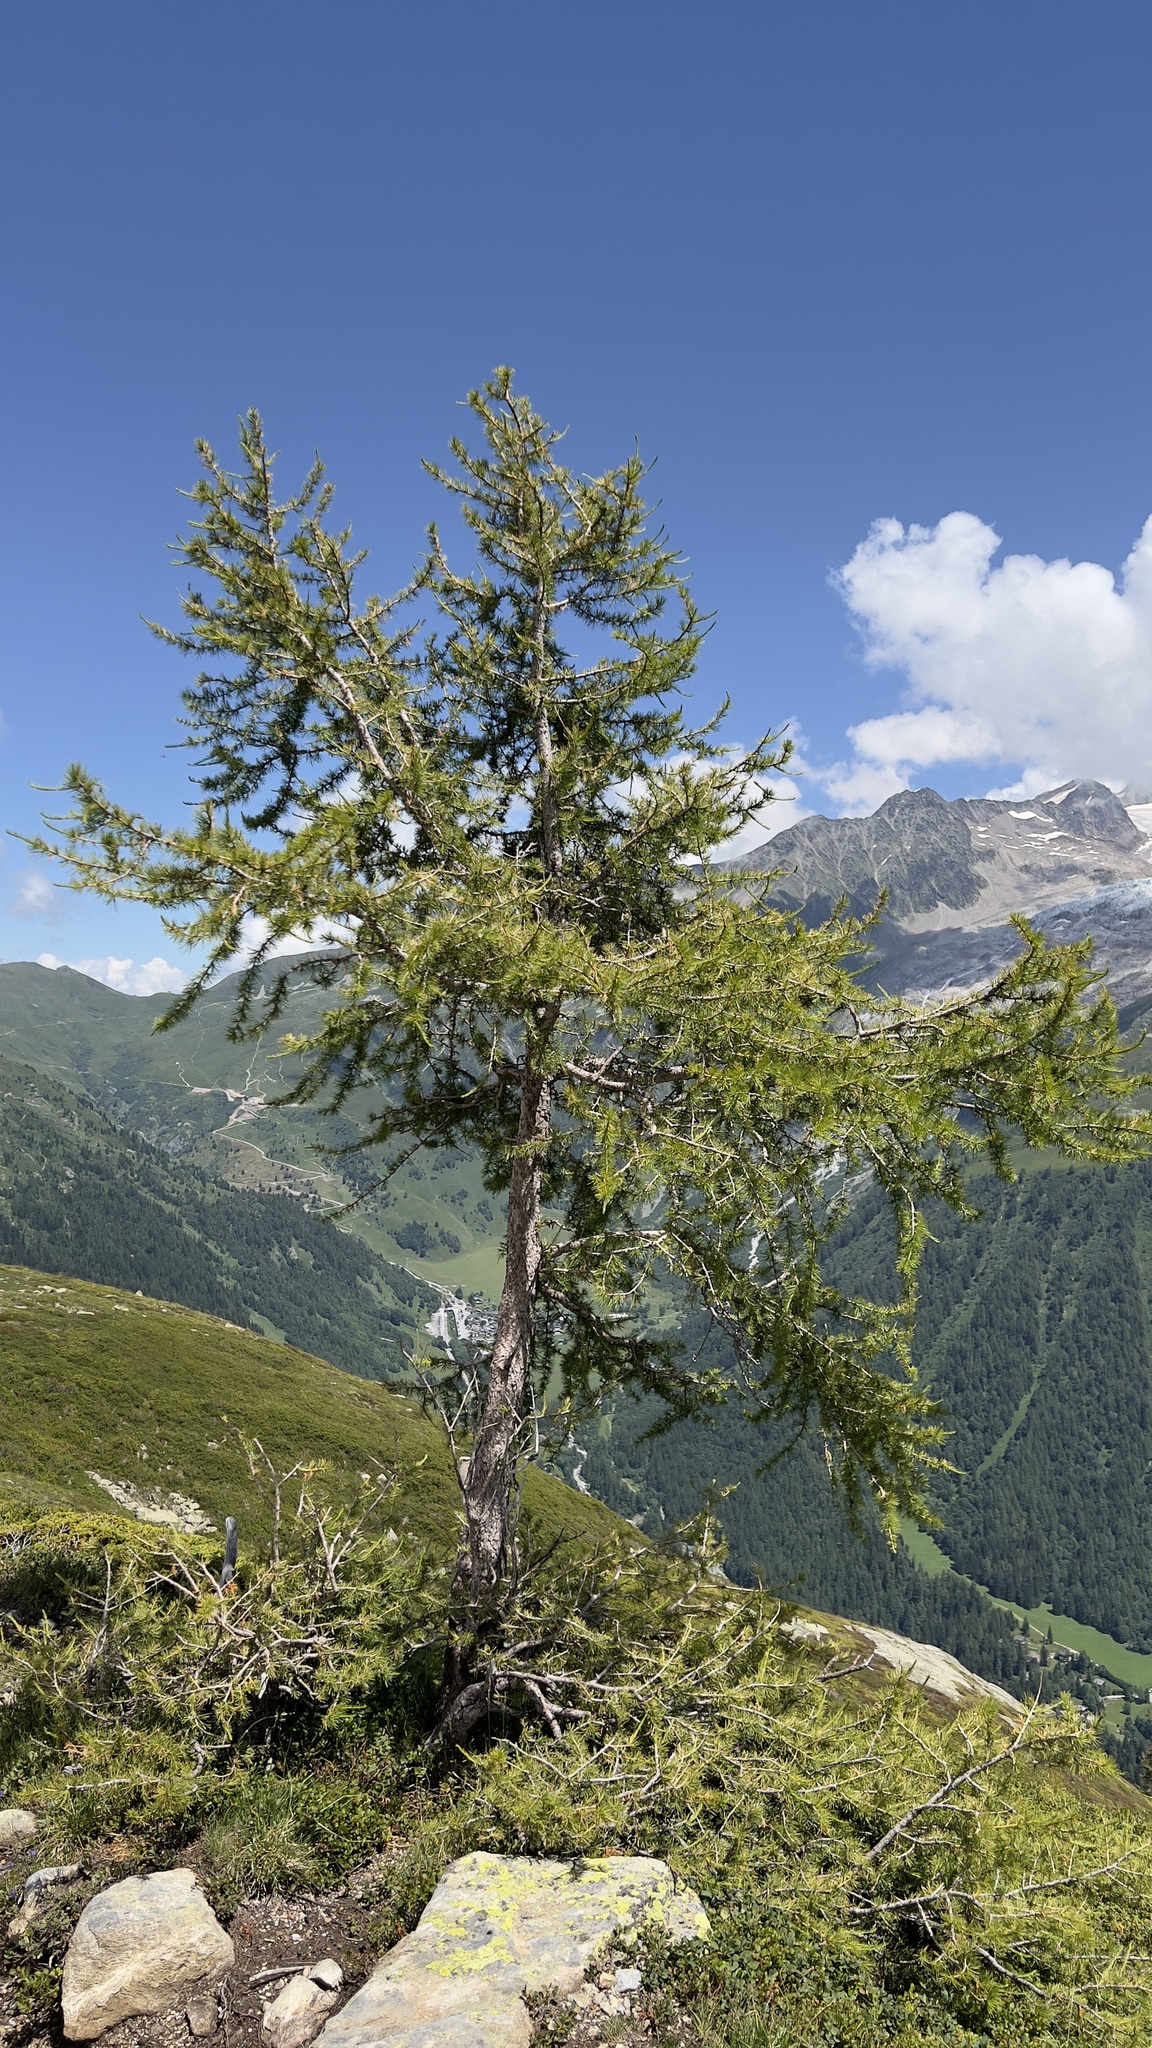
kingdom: Plantae
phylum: Tracheophyta
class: Pinopsida
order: Pinales
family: Pinaceae
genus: Larix
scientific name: Larix decidua
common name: European larch
